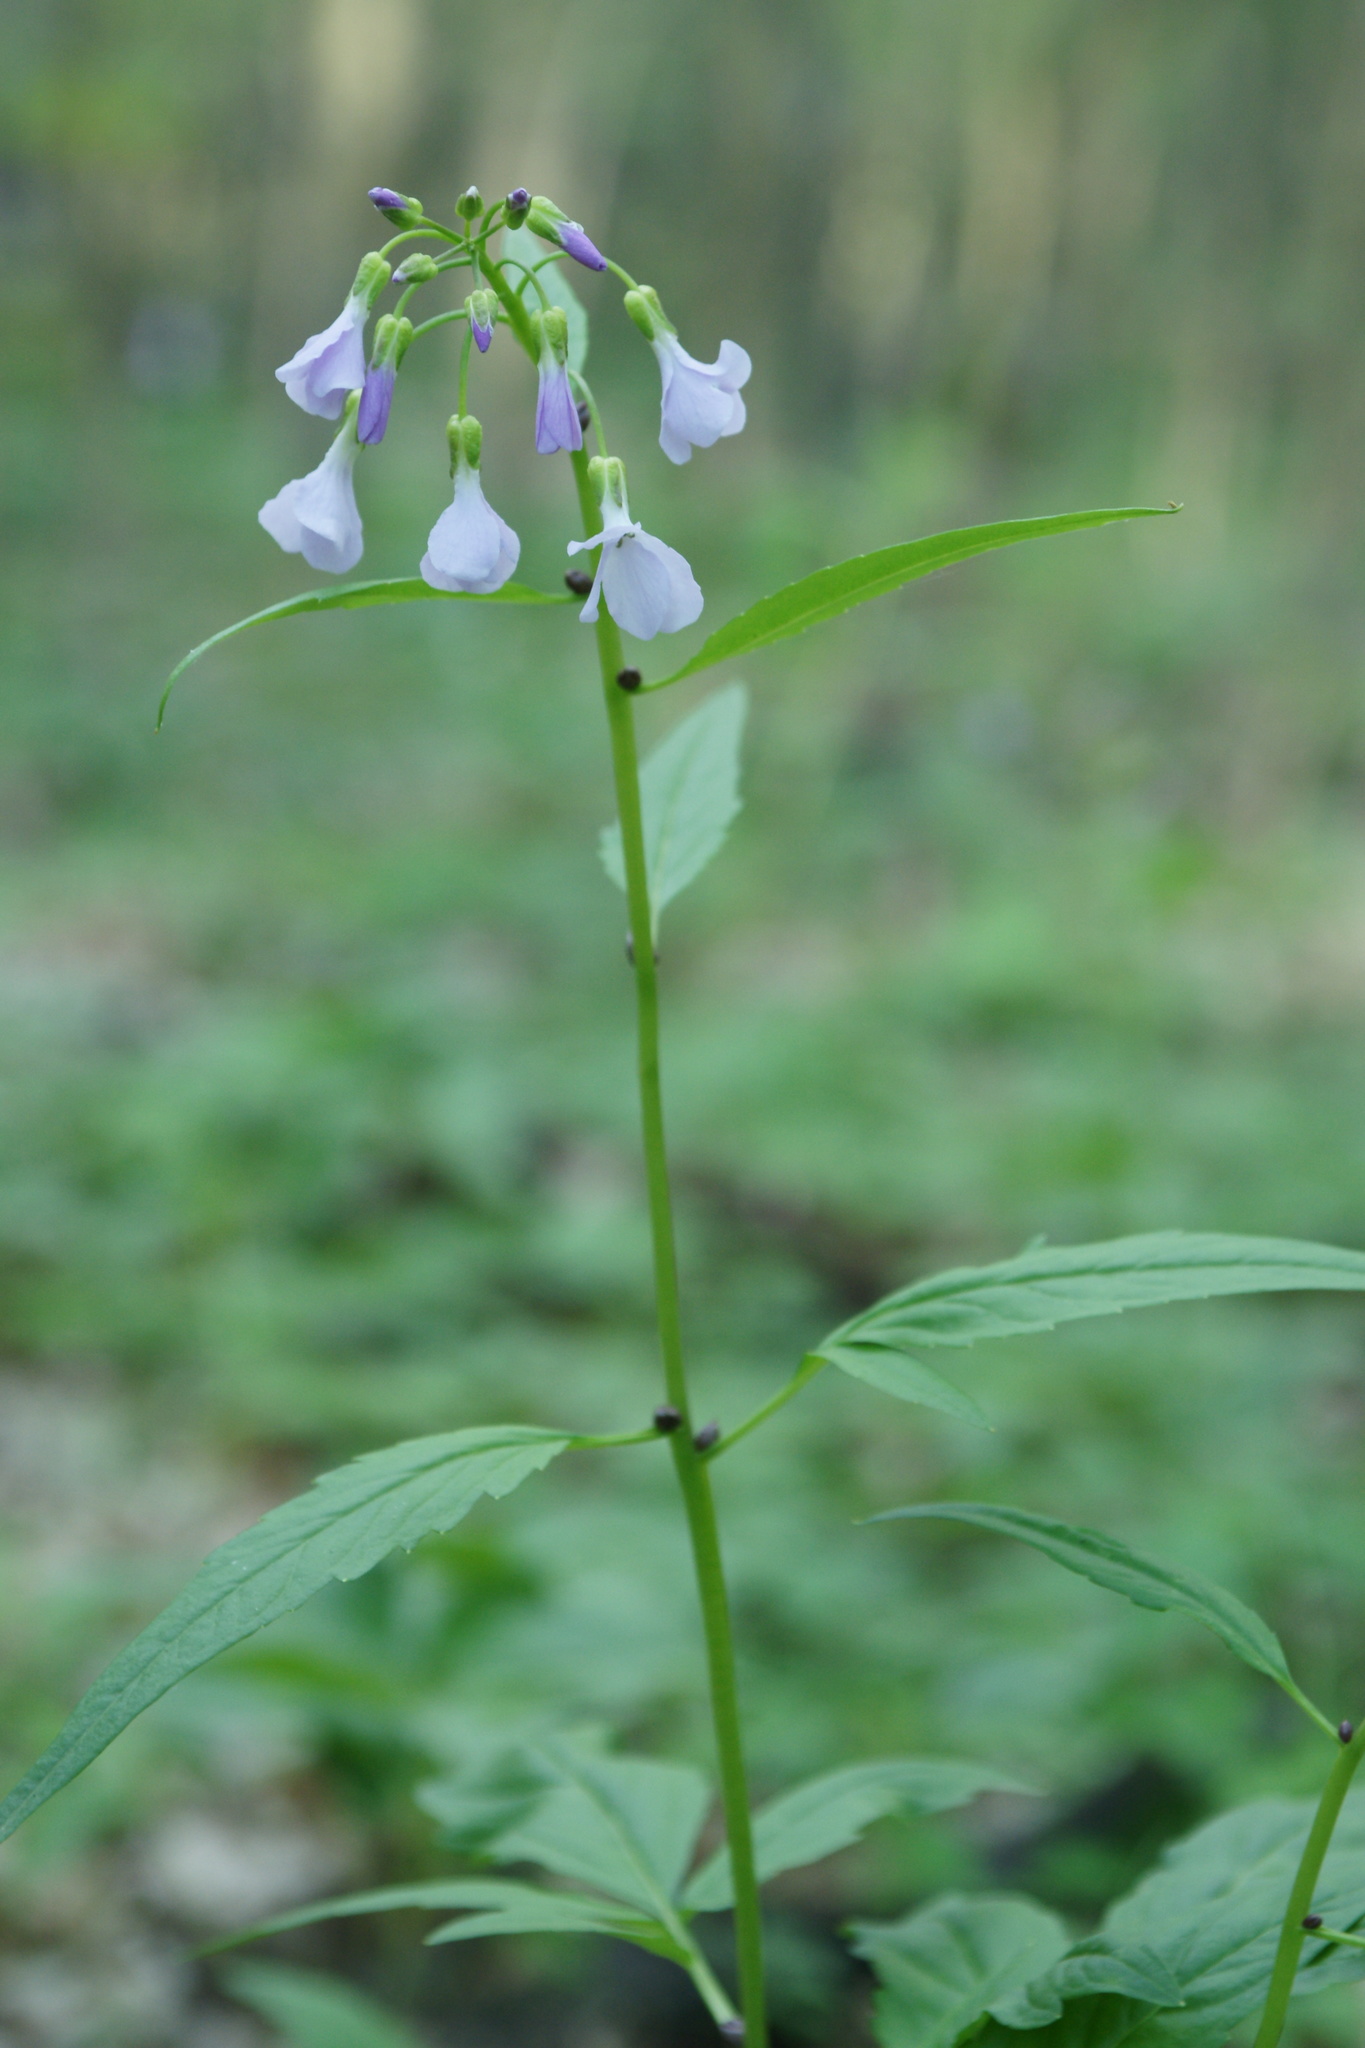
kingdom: Plantae
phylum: Tracheophyta
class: Magnoliopsida
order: Brassicales
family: Brassicaceae
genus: Cardamine
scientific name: Cardamine bulbifera
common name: Coralroot bittercress
